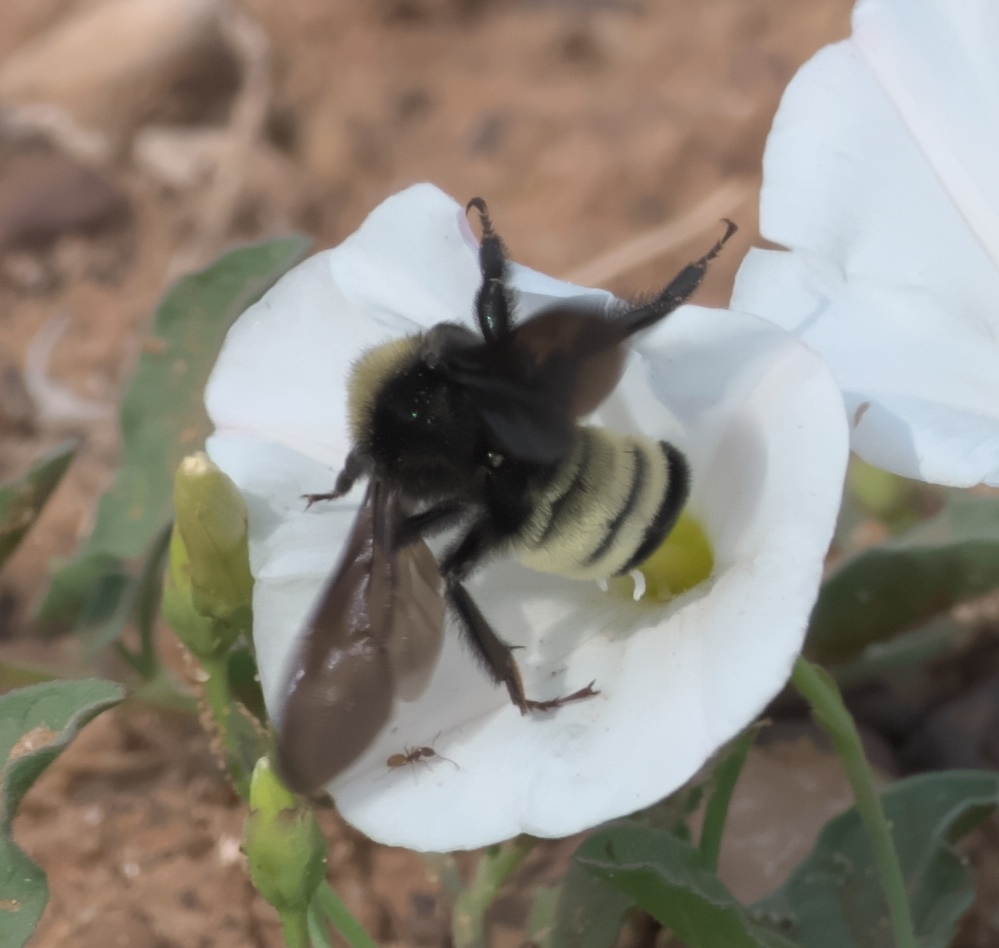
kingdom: Animalia
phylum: Arthropoda
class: Insecta
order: Hymenoptera
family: Apidae
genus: Bombus
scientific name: Bombus pensylvanicus
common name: Bumble bee
